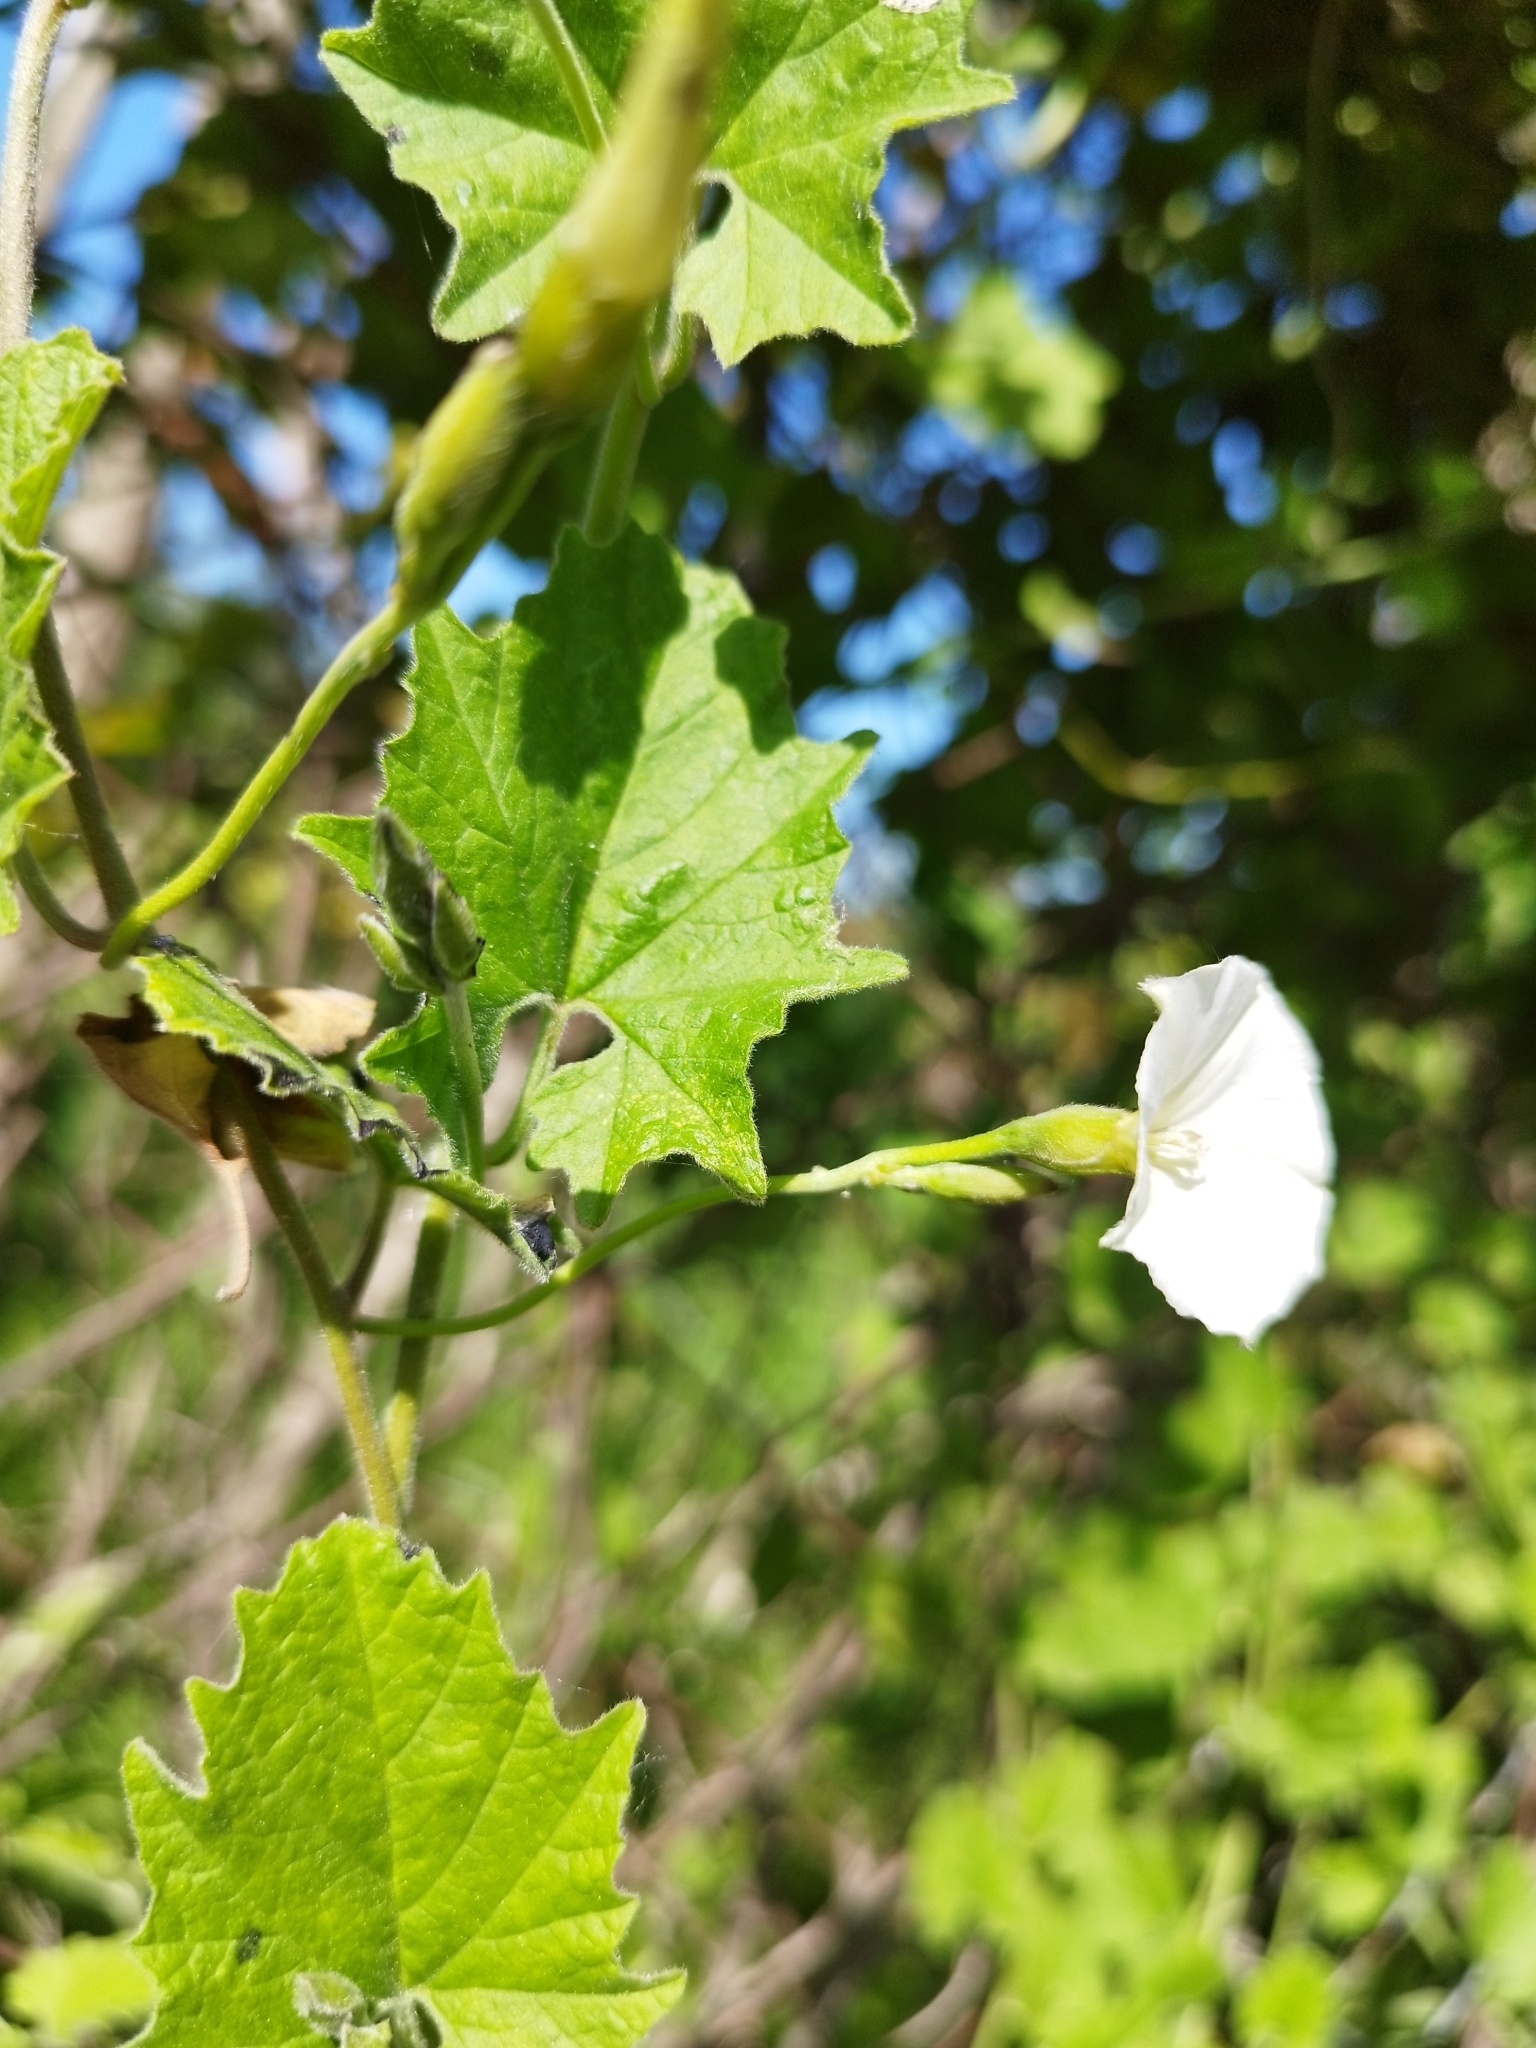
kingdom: Plantae
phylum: Tracheophyta
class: Magnoliopsida
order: Solanales
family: Convolvulaceae
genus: Convolvulus
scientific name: Convolvulus crenatifolius
